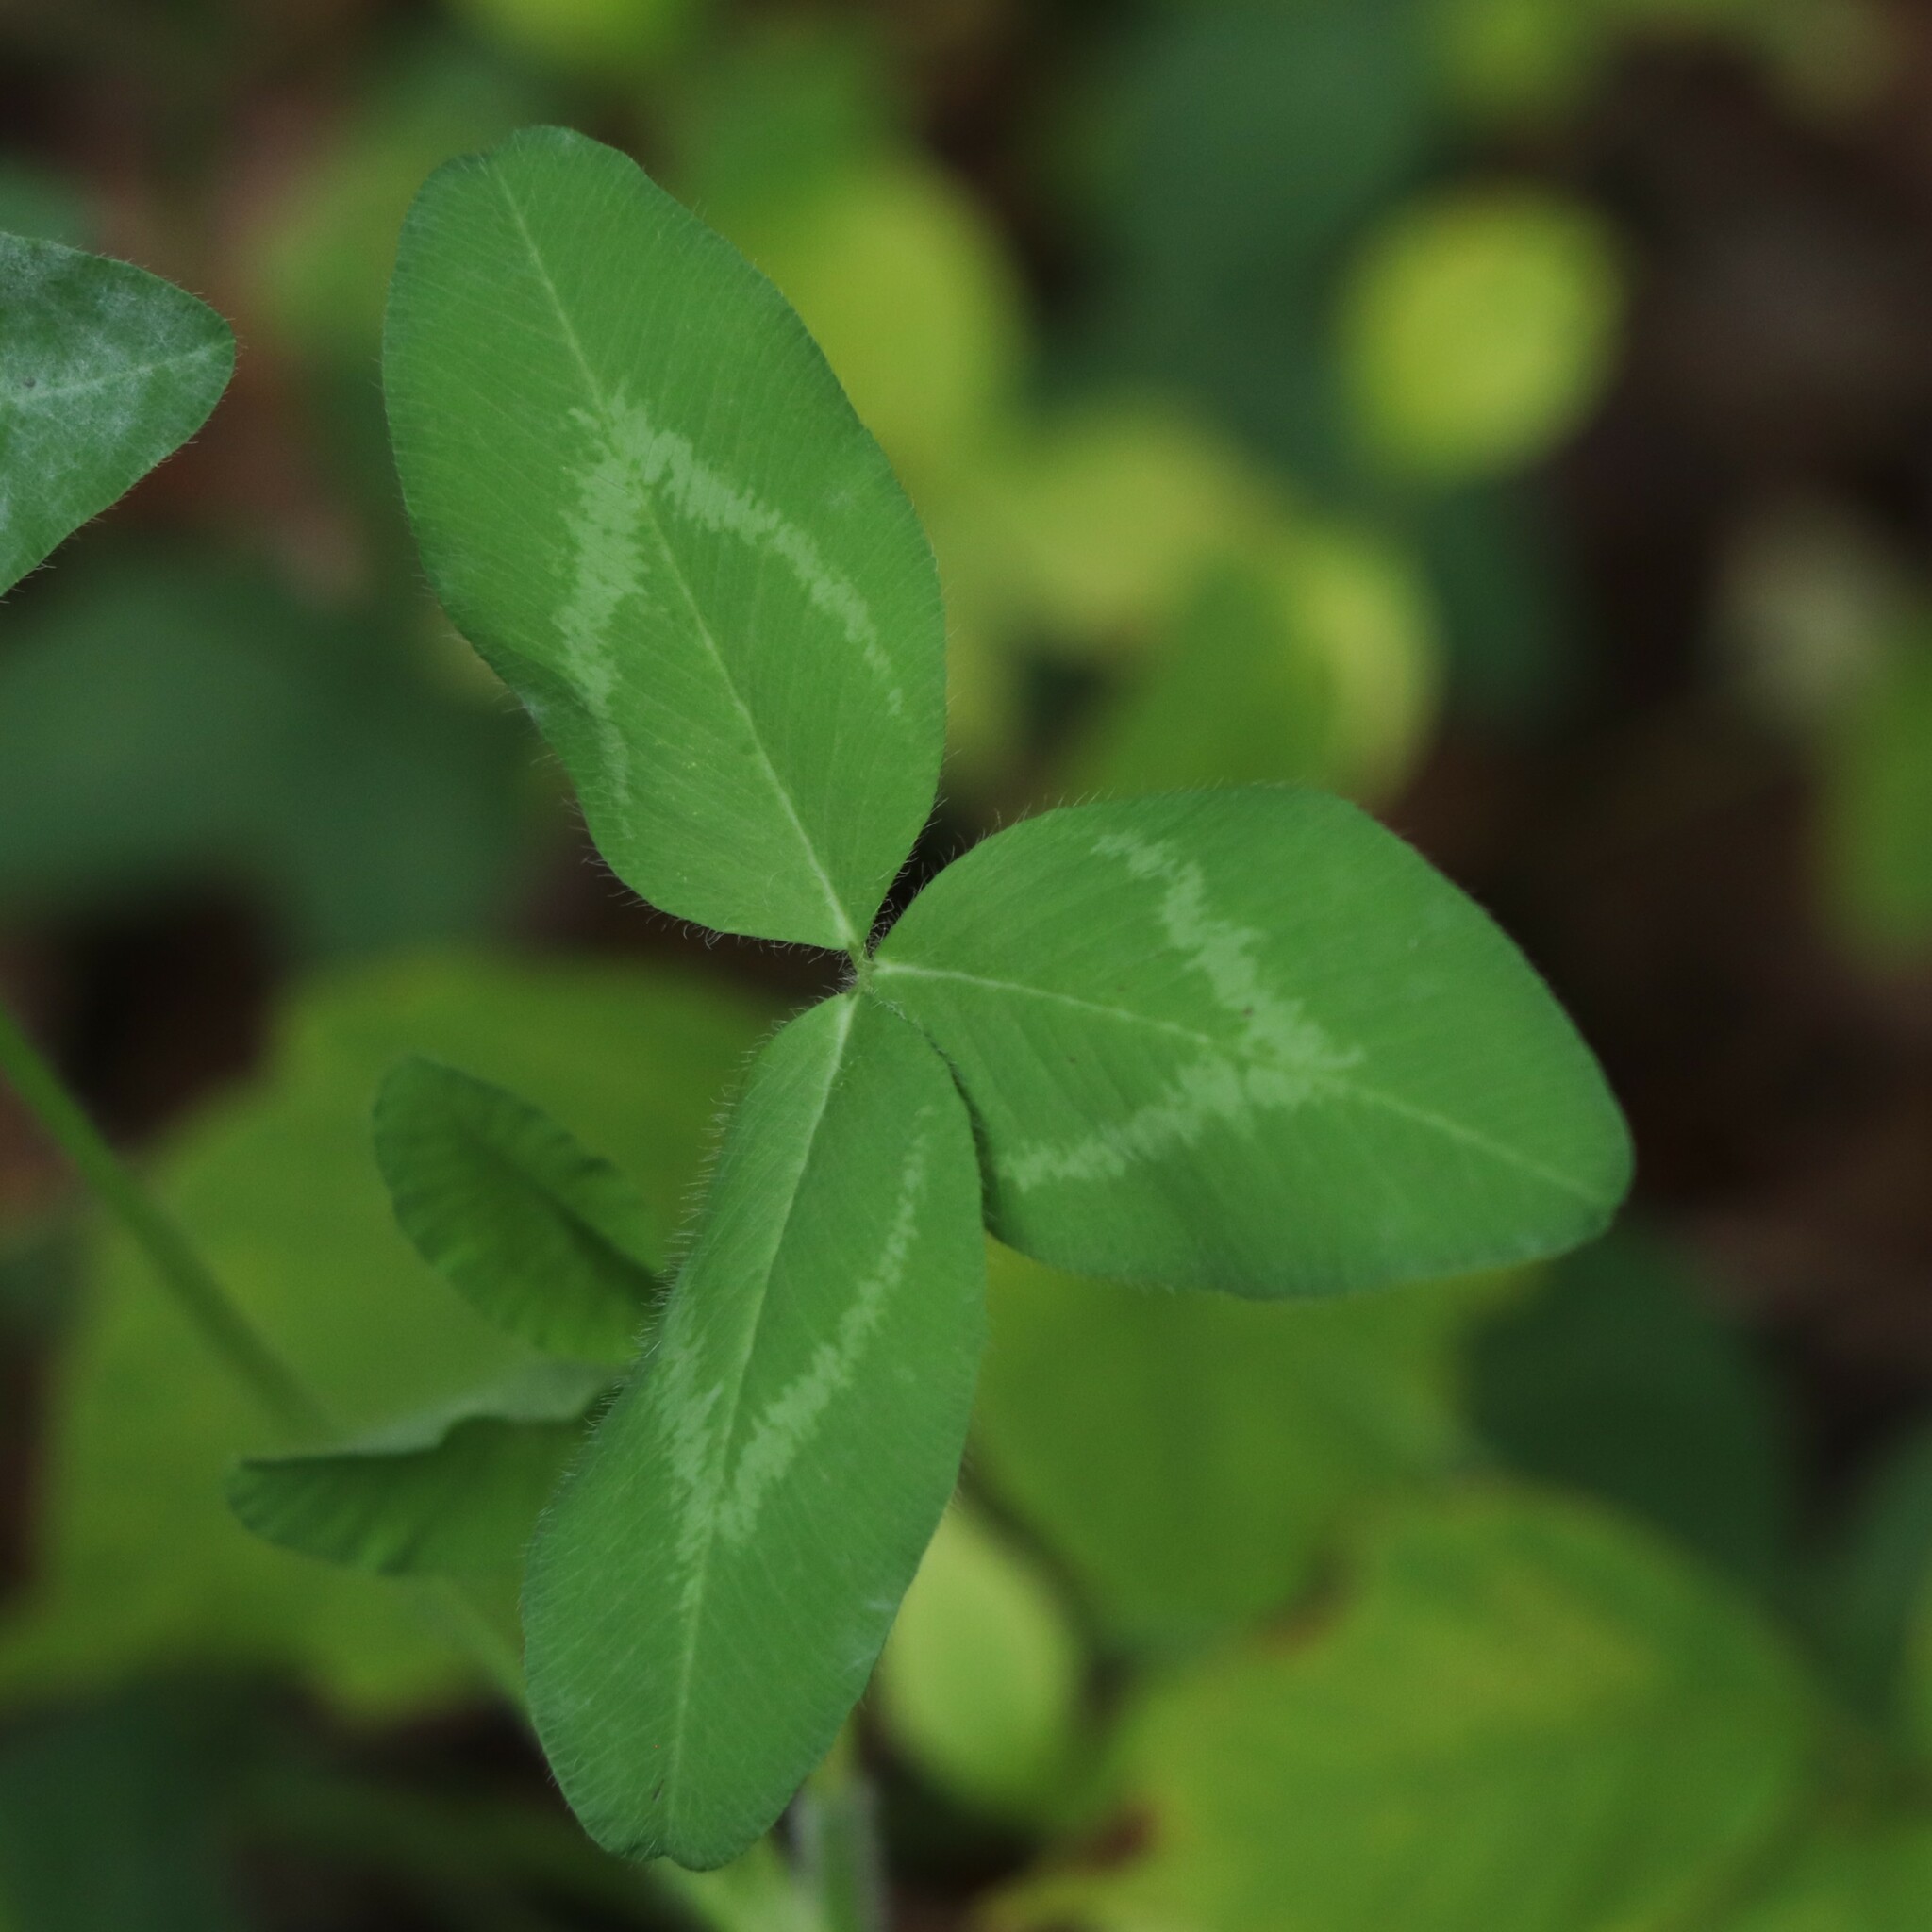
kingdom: Plantae
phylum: Tracheophyta
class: Magnoliopsida
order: Fabales
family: Fabaceae
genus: Trifolium
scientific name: Trifolium pratense
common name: Red clover
